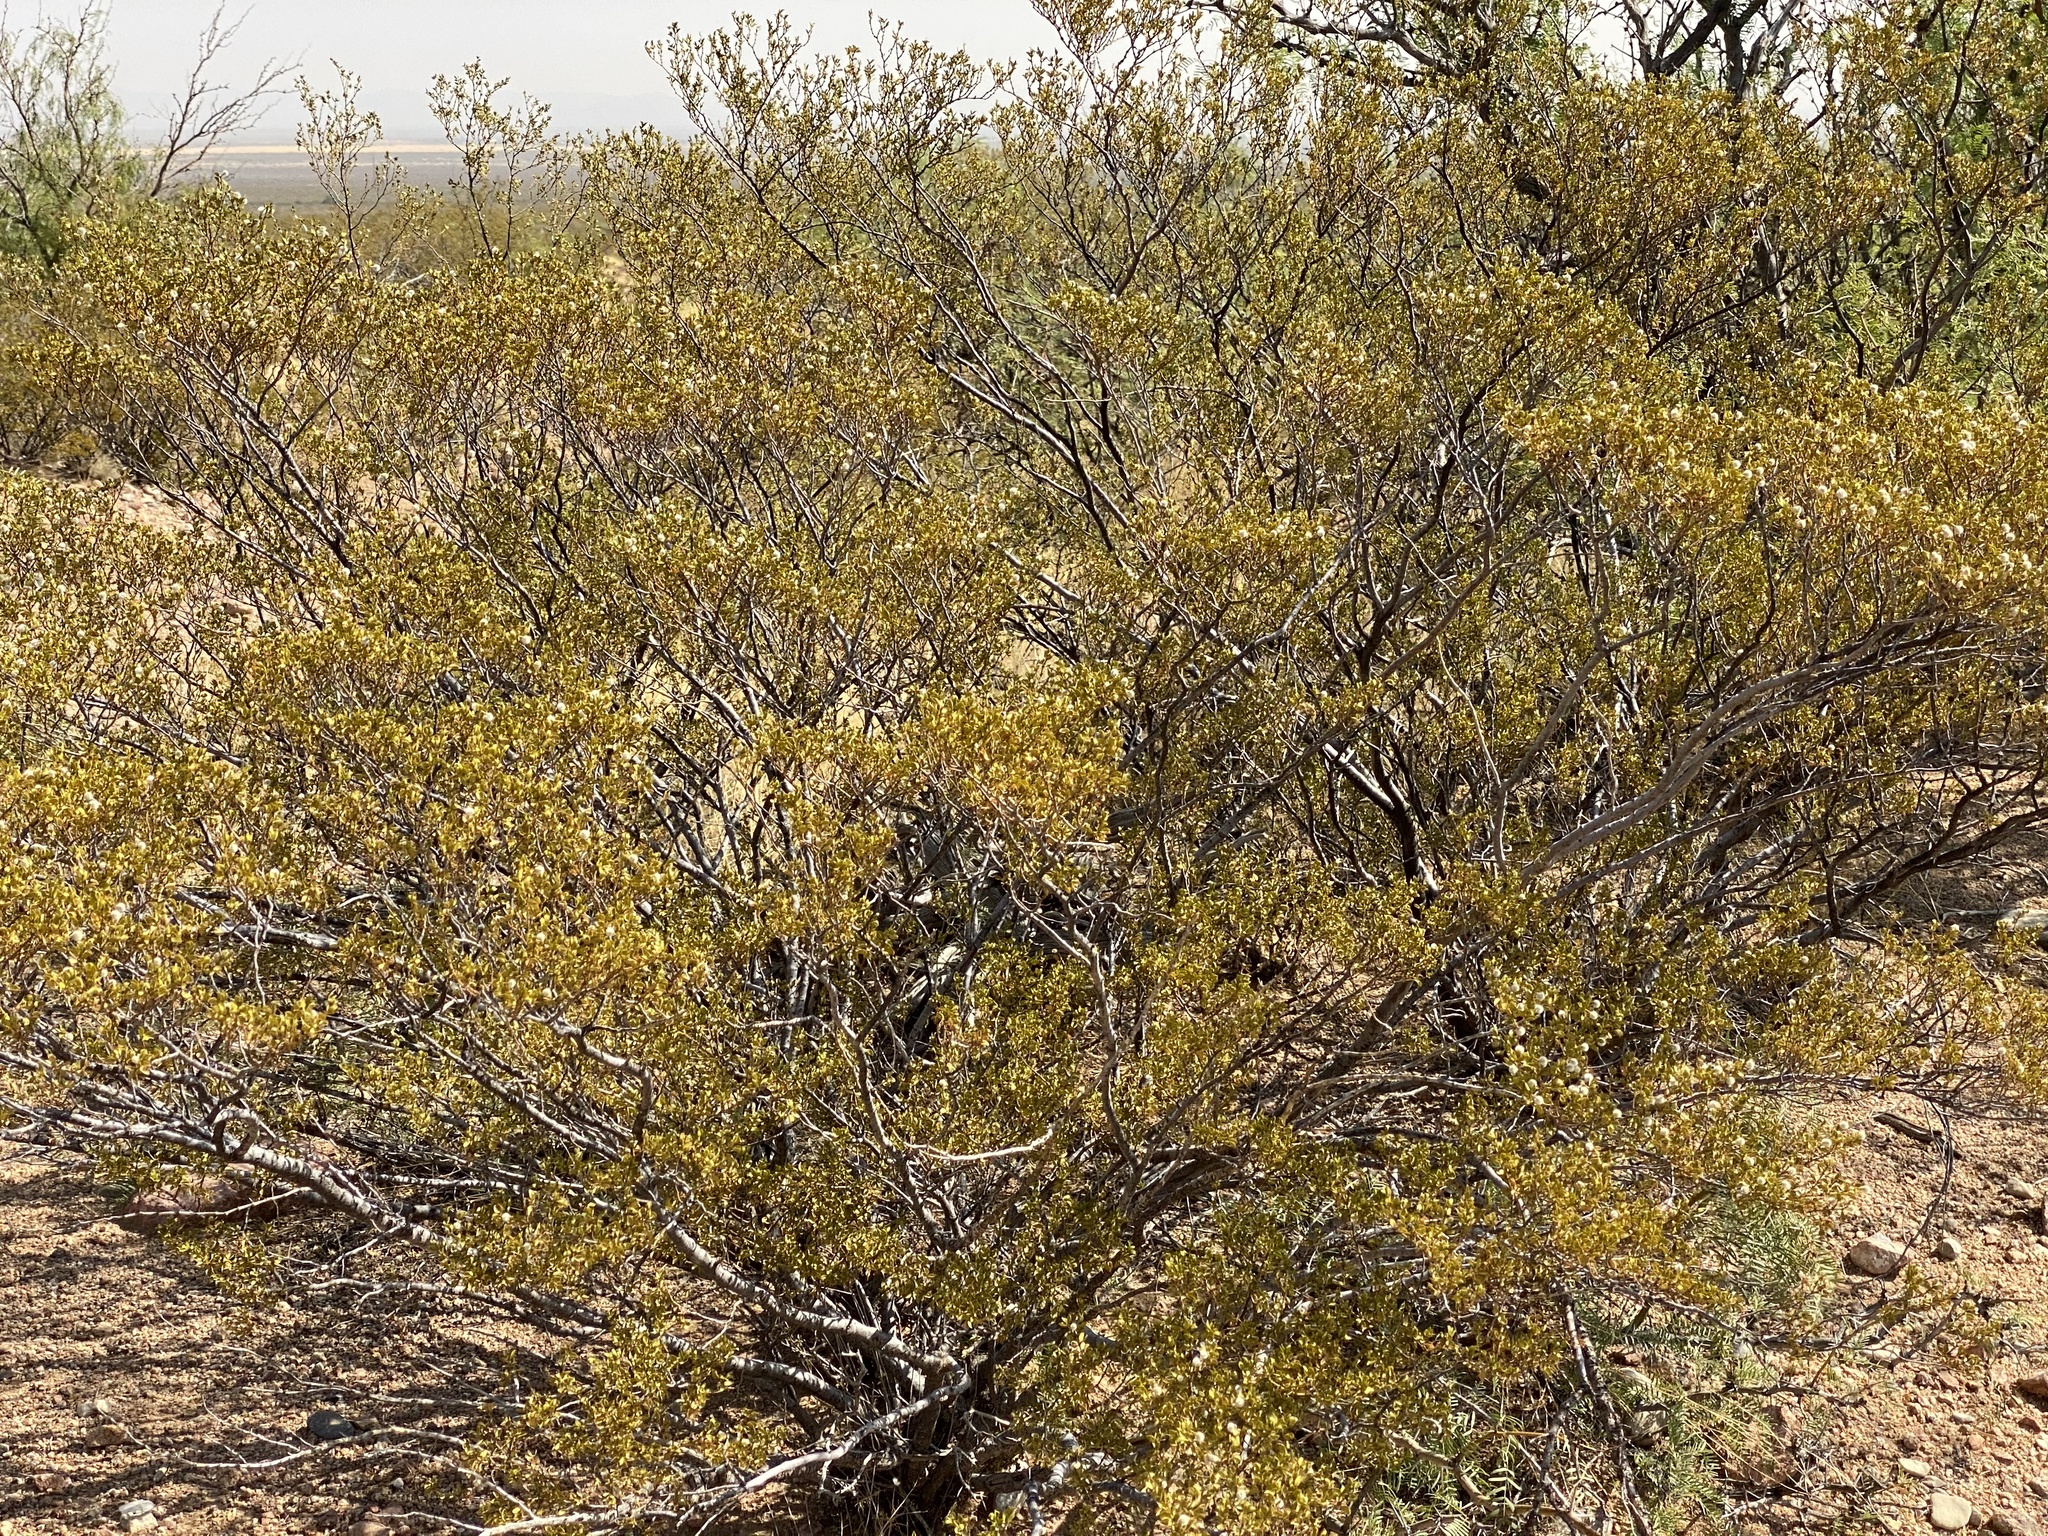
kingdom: Plantae
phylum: Tracheophyta
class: Magnoliopsida
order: Zygophyllales
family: Zygophyllaceae
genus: Larrea
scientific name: Larrea tridentata
